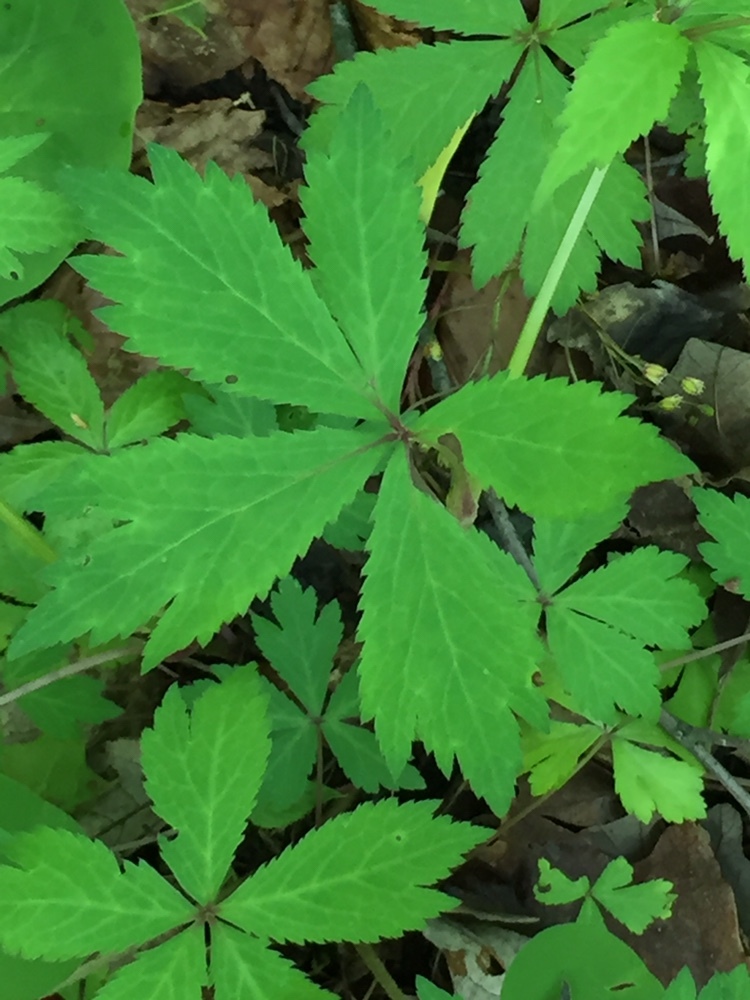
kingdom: Plantae
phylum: Tracheophyta
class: Magnoliopsida
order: Apiales
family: Apiaceae
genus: Sanicula
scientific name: Sanicula odorata
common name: Cluster sanicle
